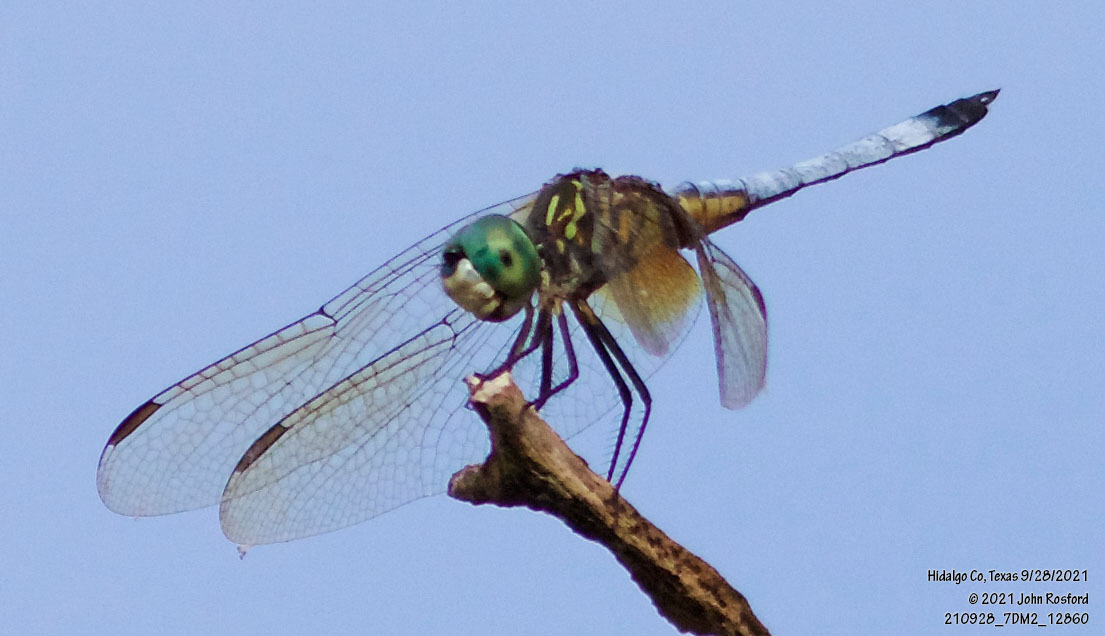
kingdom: Animalia
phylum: Arthropoda
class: Insecta
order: Odonata
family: Libellulidae
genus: Pachydiplax
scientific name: Pachydiplax longipennis
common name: Blue dasher
